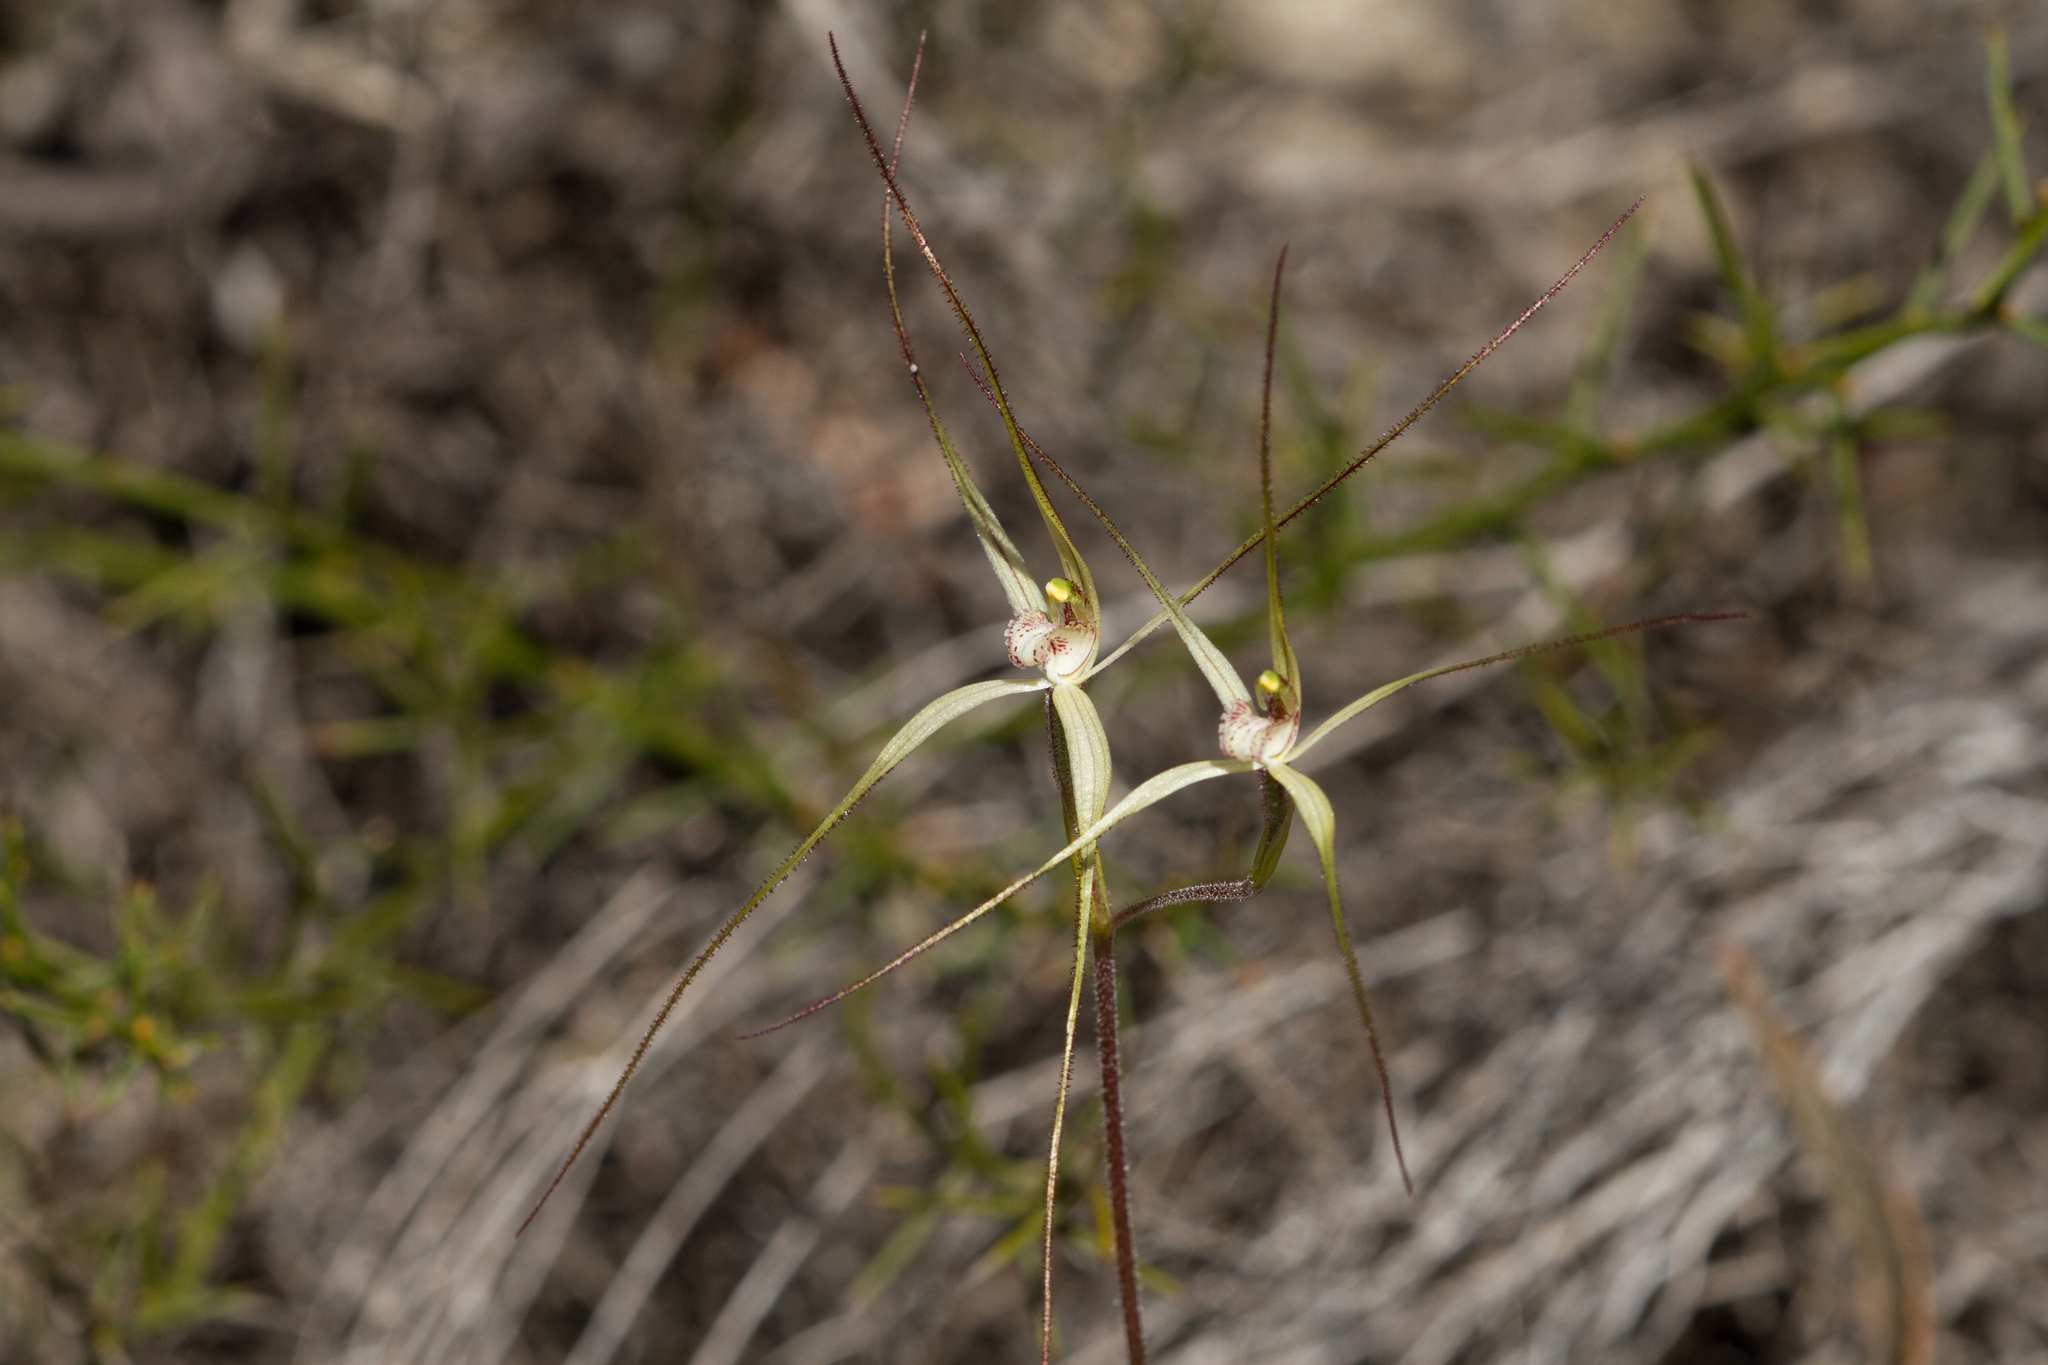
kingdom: Plantae
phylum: Tracheophyta
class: Liliopsida
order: Asparagales
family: Orchidaceae
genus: Caladenia
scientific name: Caladenia capillata
